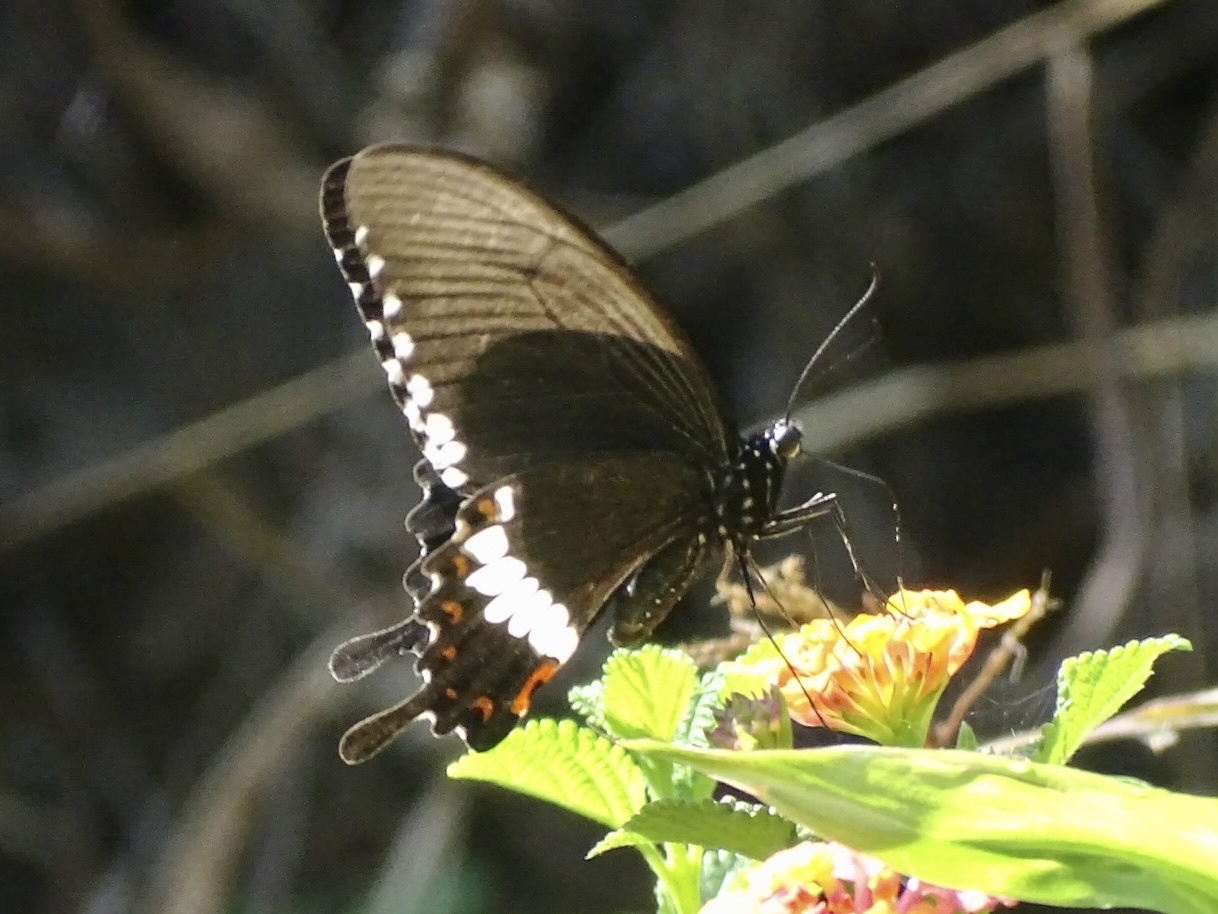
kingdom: Animalia
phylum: Arthropoda
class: Insecta
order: Lepidoptera
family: Papilionidae
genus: Papilio
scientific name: Papilio polytes
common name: Common mormon
